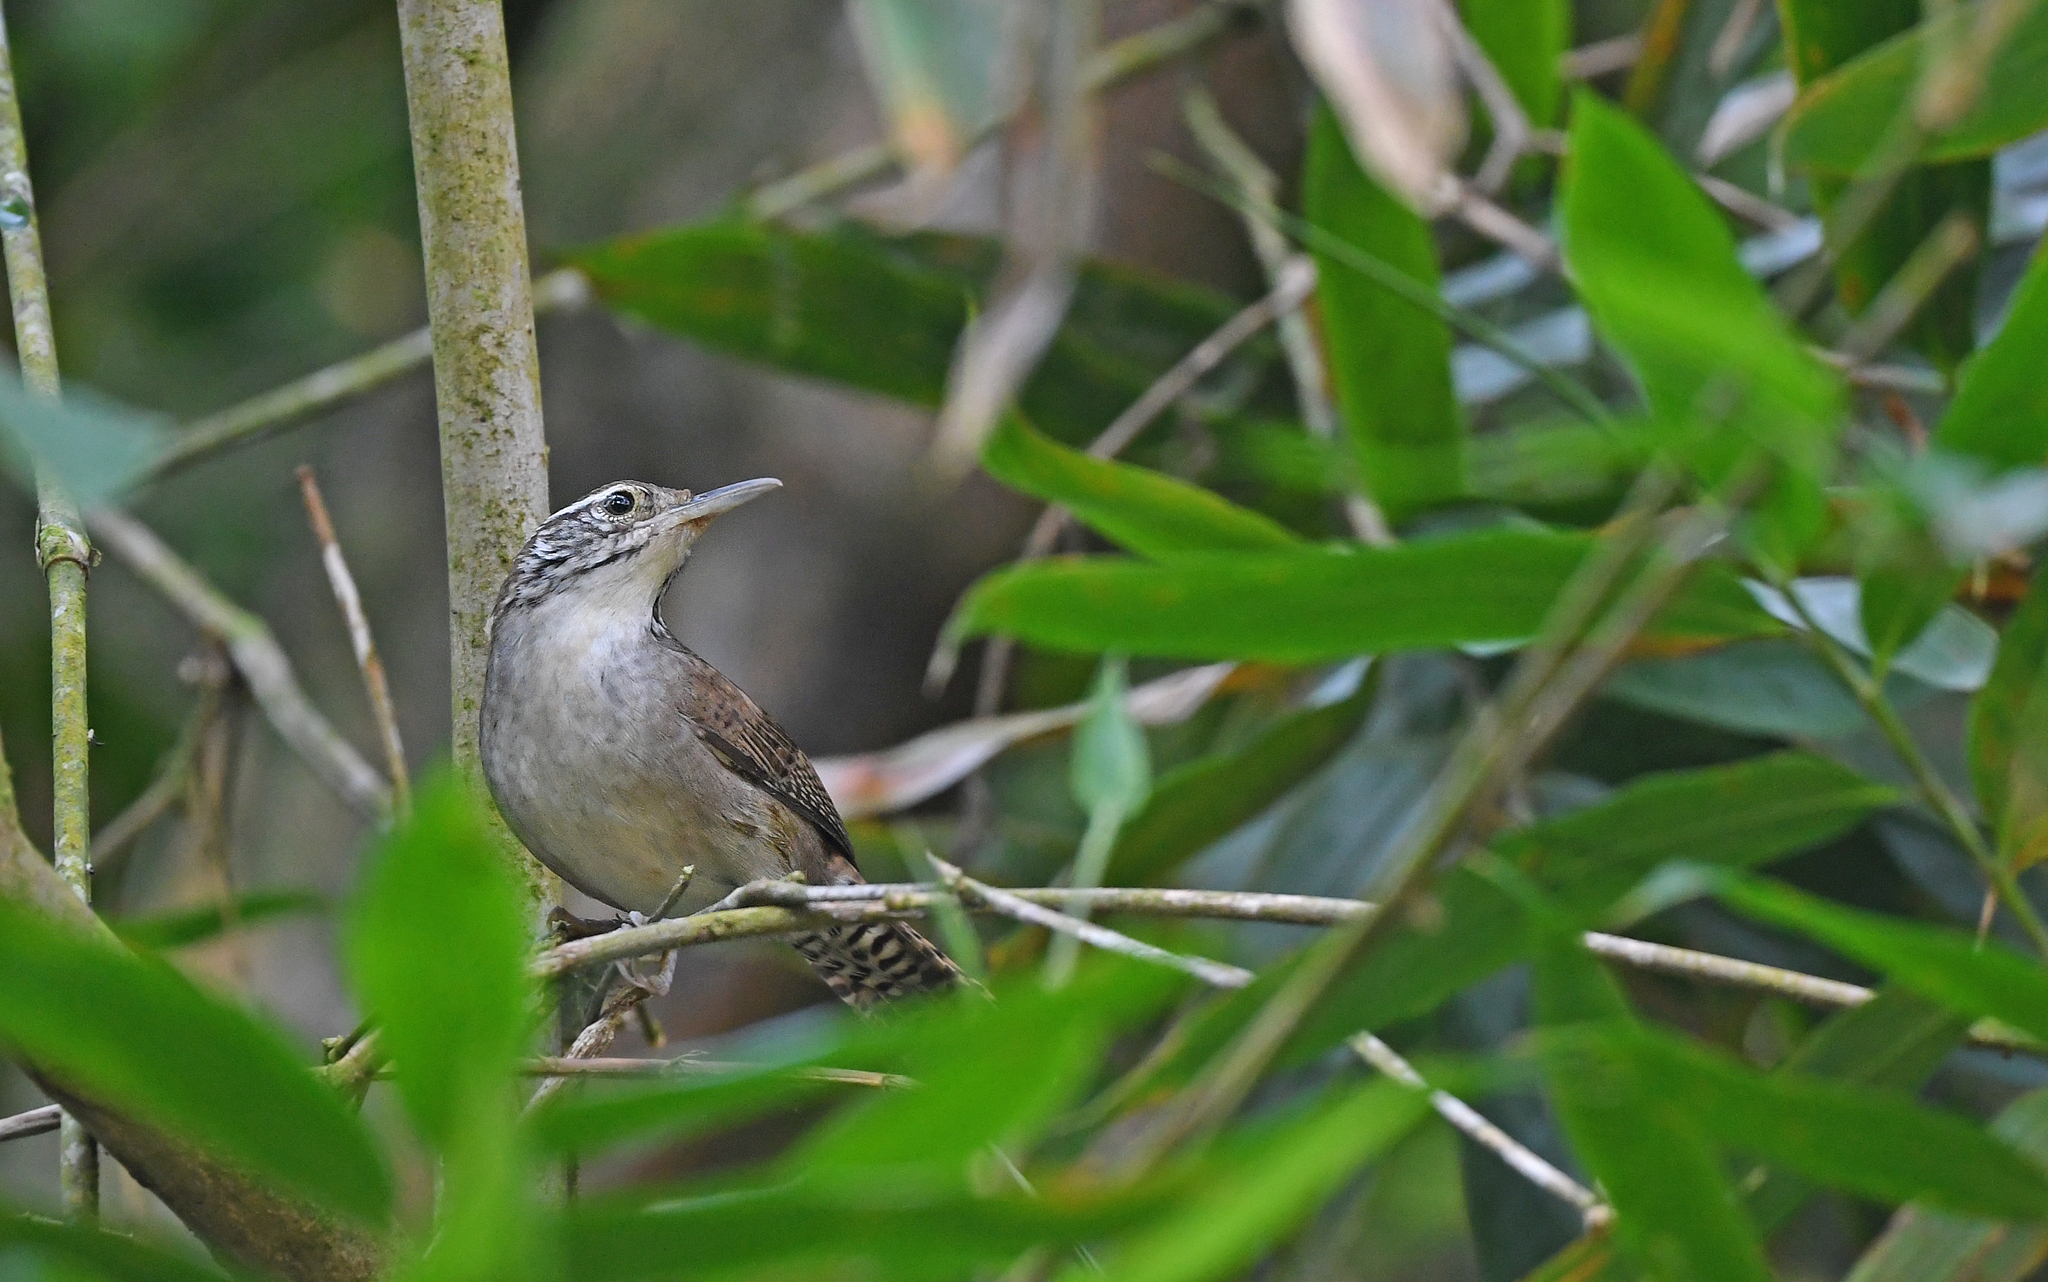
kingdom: Animalia
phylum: Chordata
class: Aves
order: Passeriformes
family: Troglodytidae
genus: Thryophilus
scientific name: Thryophilus nicefori
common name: Niceforo's wren
